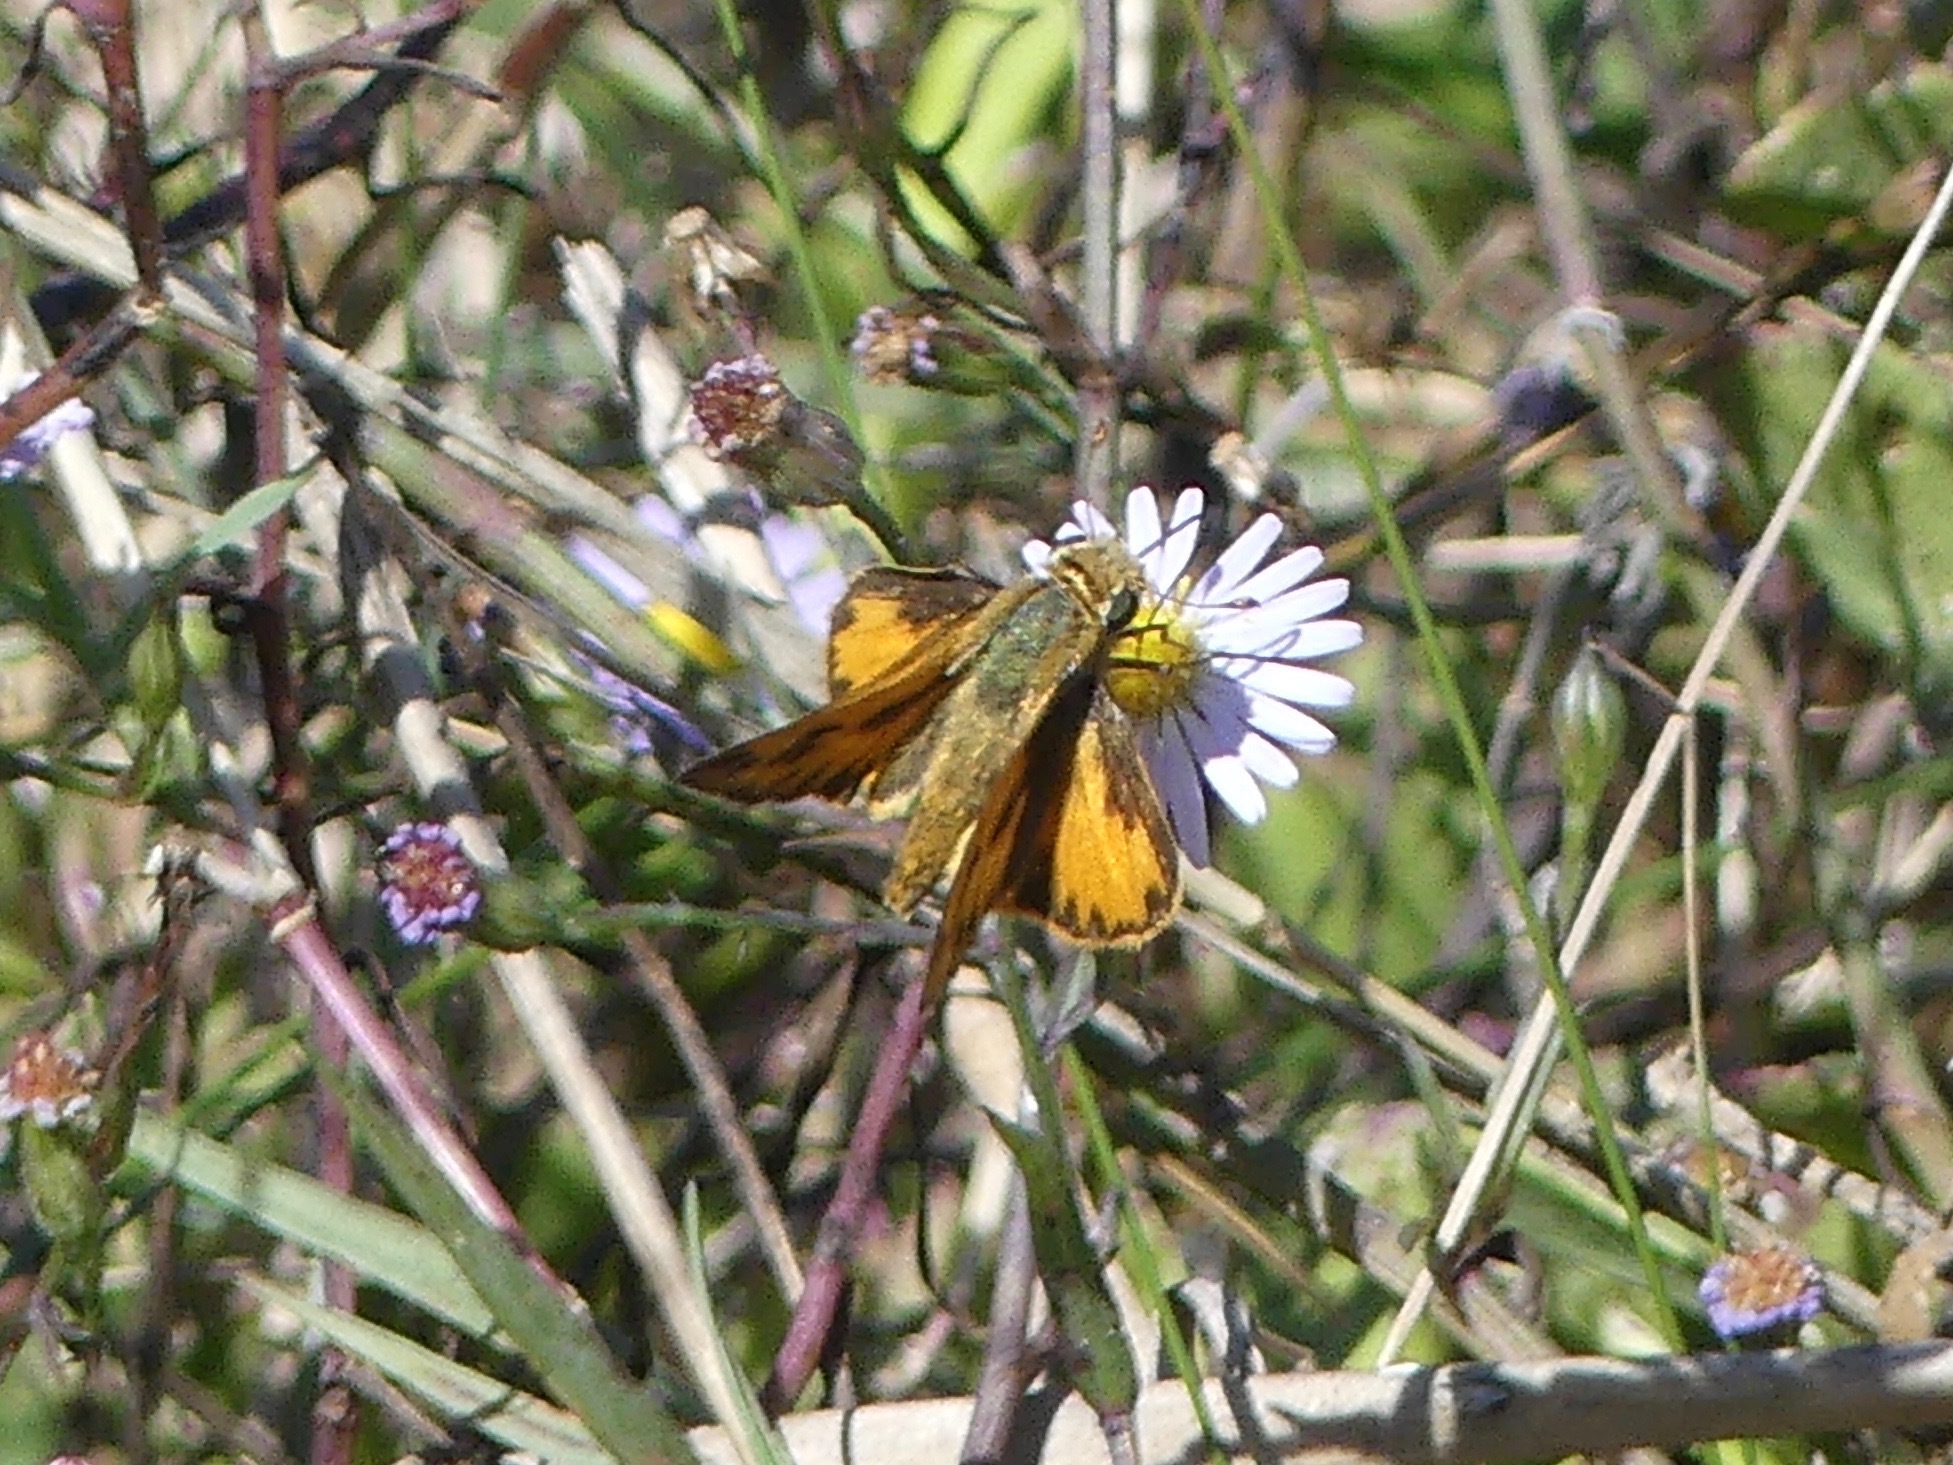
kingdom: Animalia
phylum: Arthropoda
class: Insecta
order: Lepidoptera
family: Hesperiidae
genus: Hylephila
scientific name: Hylephila phyleus
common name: Fiery skipper
